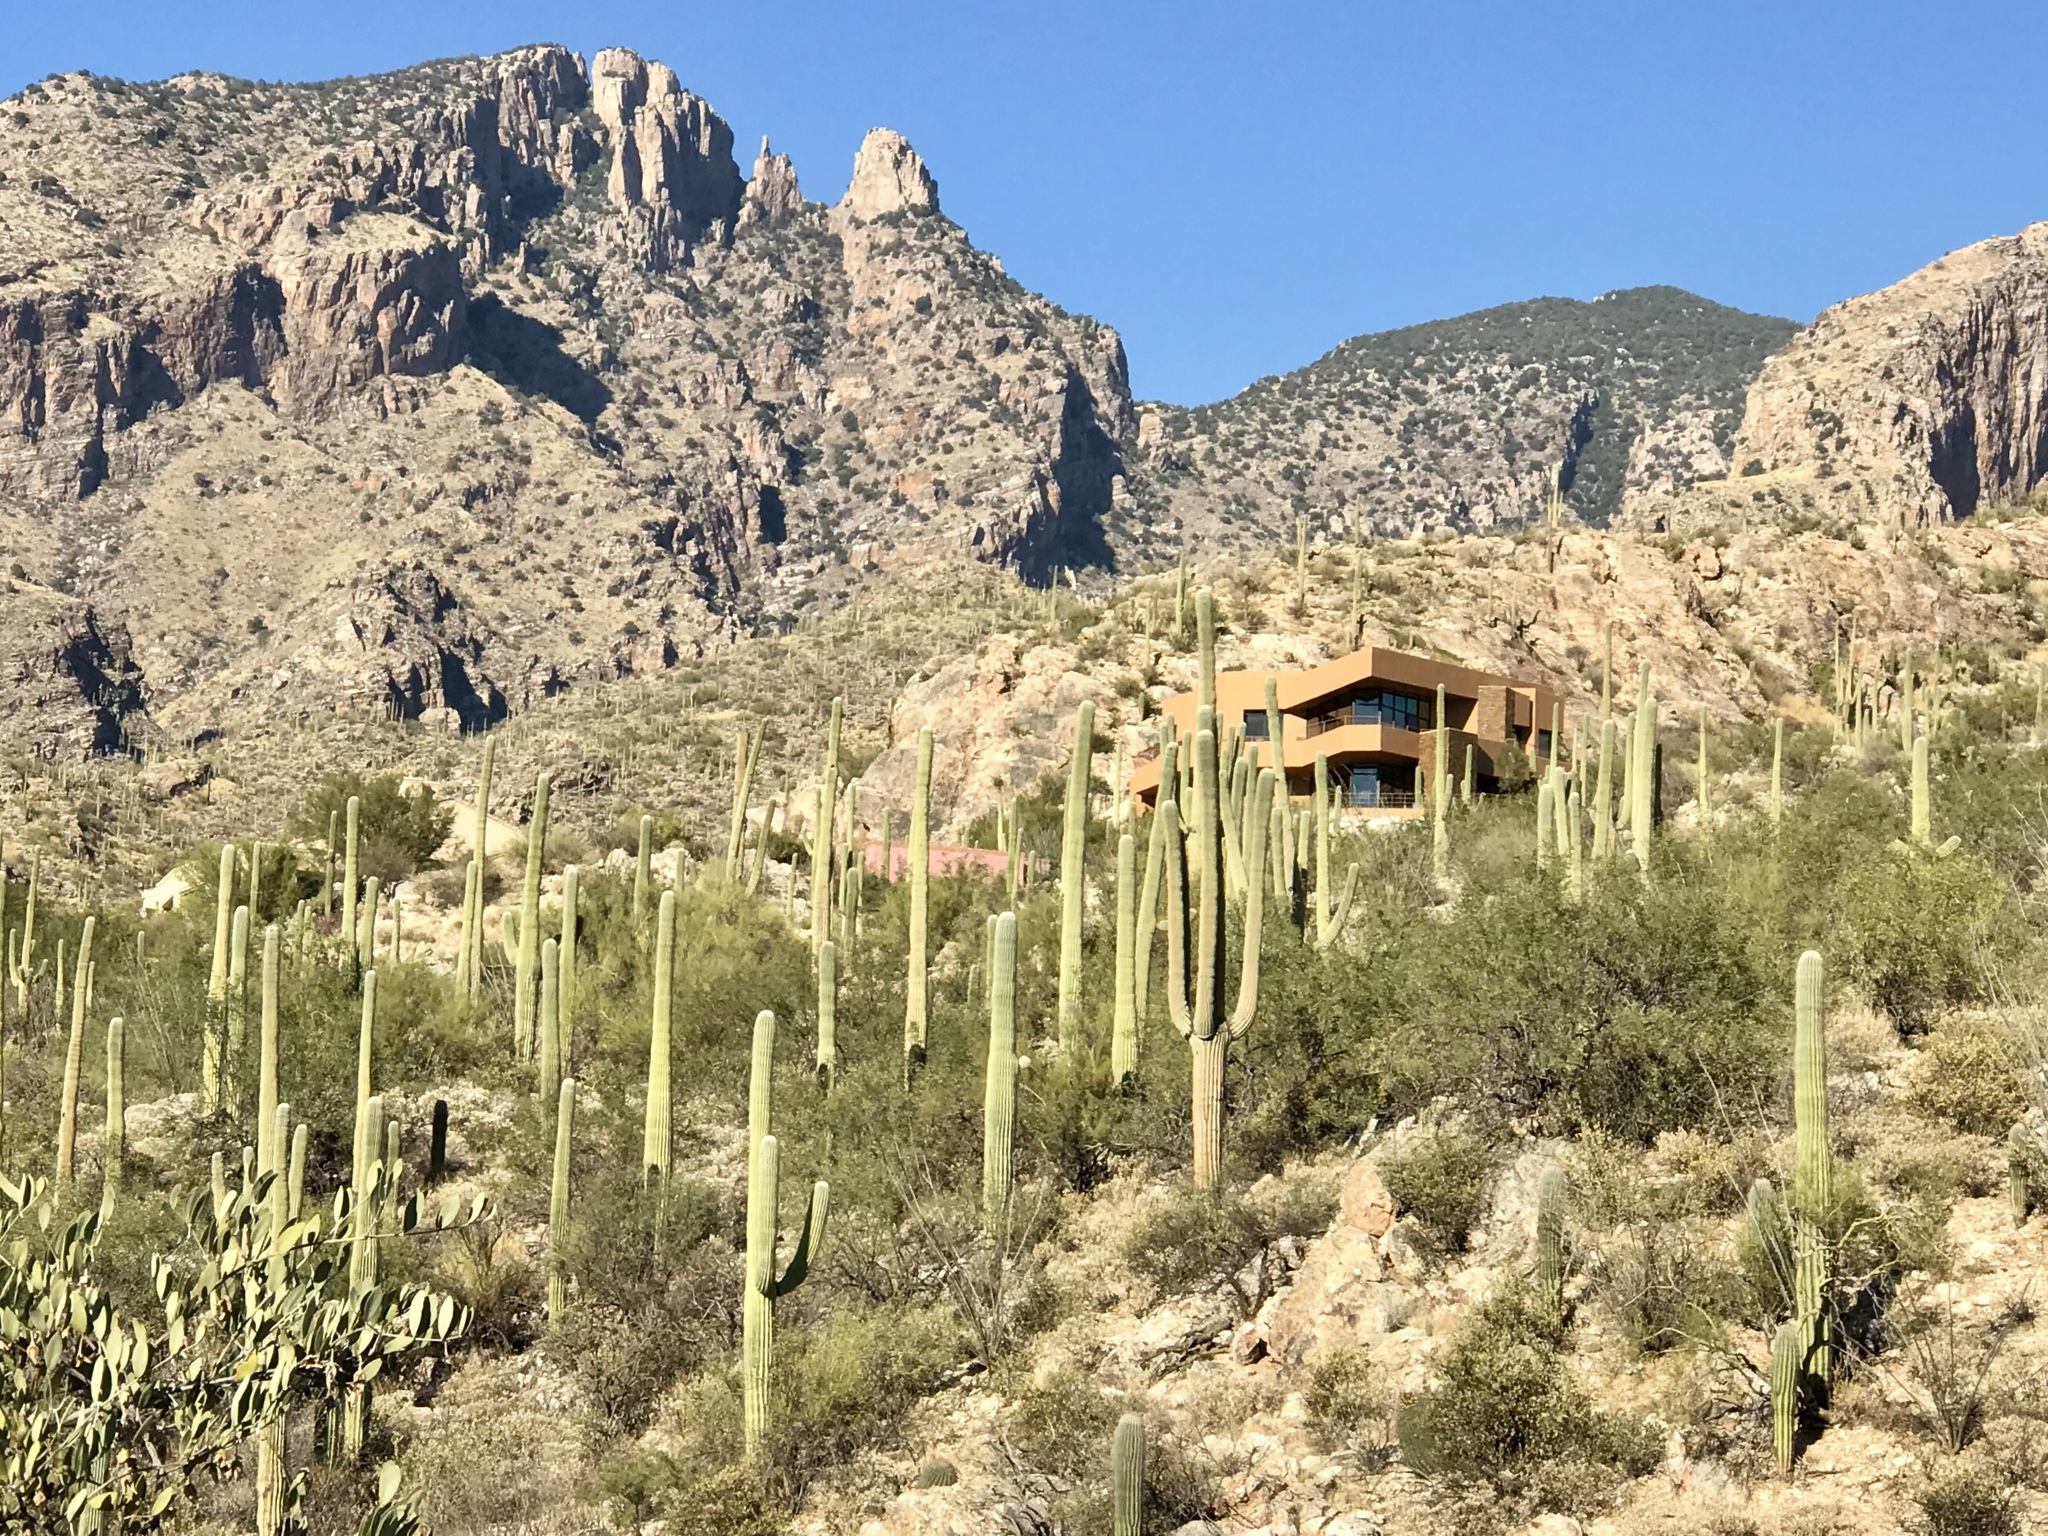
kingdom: Plantae
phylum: Tracheophyta
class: Magnoliopsida
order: Caryophyllales
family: Cactaceae
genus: Carnegiea
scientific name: Carnegiea gigantea
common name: Saguaro
